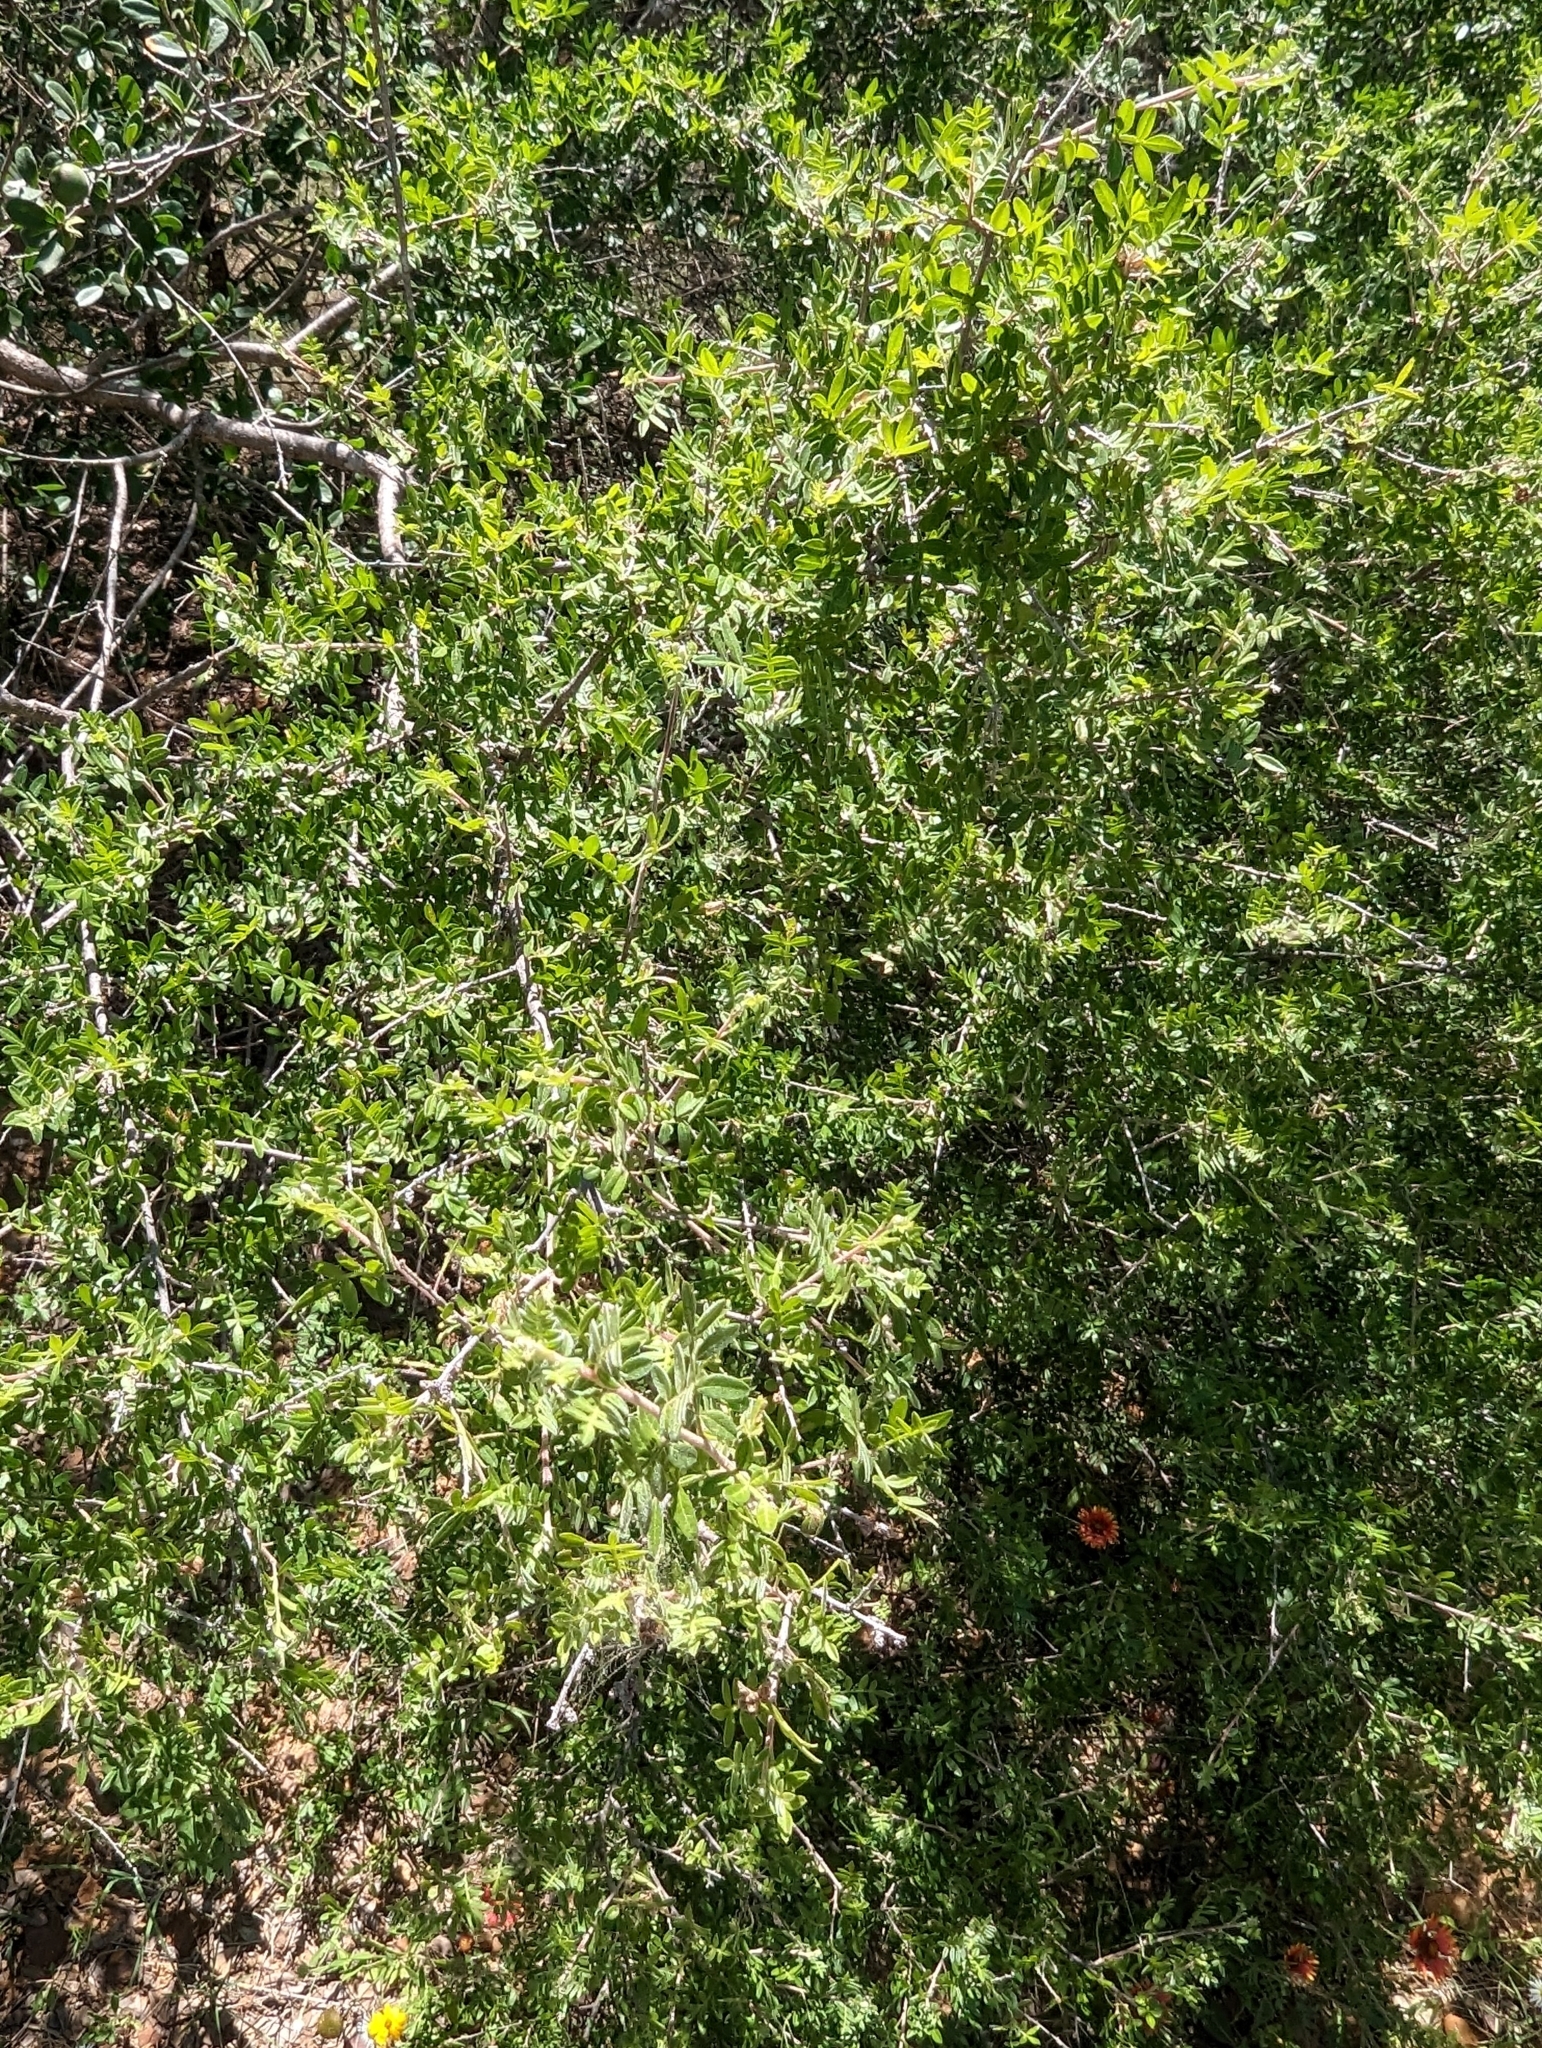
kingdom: Plantae
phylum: Tracheophyta
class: Magnoliopsida
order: Sapindales
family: Anacardiaceae
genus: Rhus
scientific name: Rhus microphylla
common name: Desert sumac
